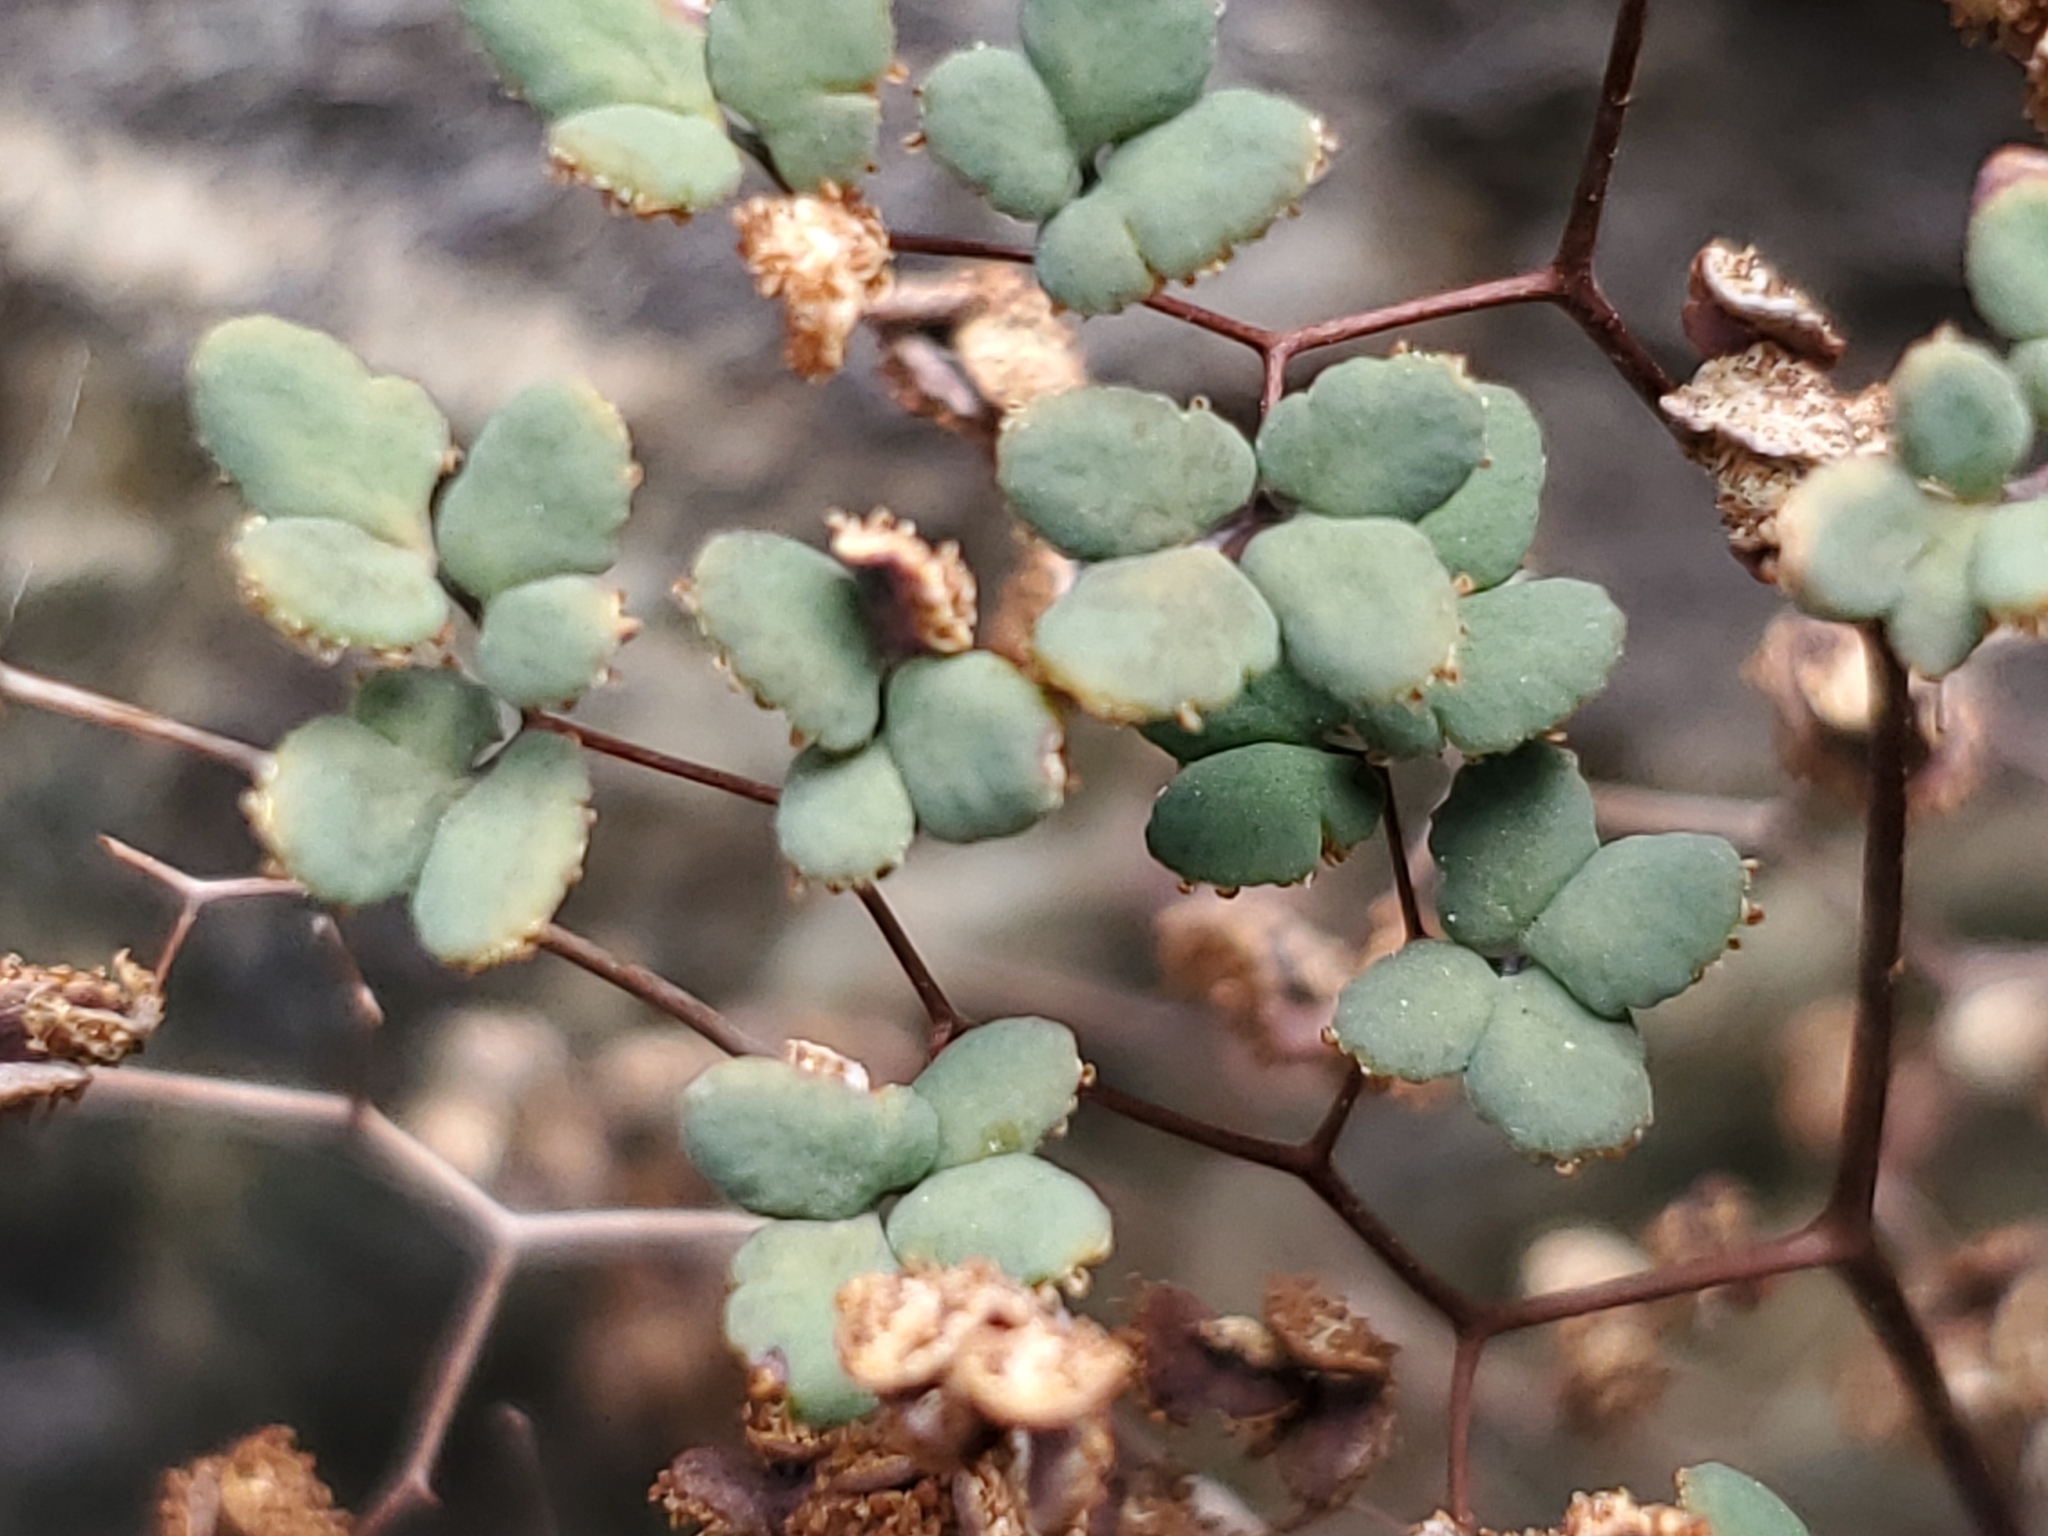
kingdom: Plantae
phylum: Tracheophyta
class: Polypodiopsida
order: Polypodiales
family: Pteridaceae
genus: Argyrochosma
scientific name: Argyrochosma fendleri
